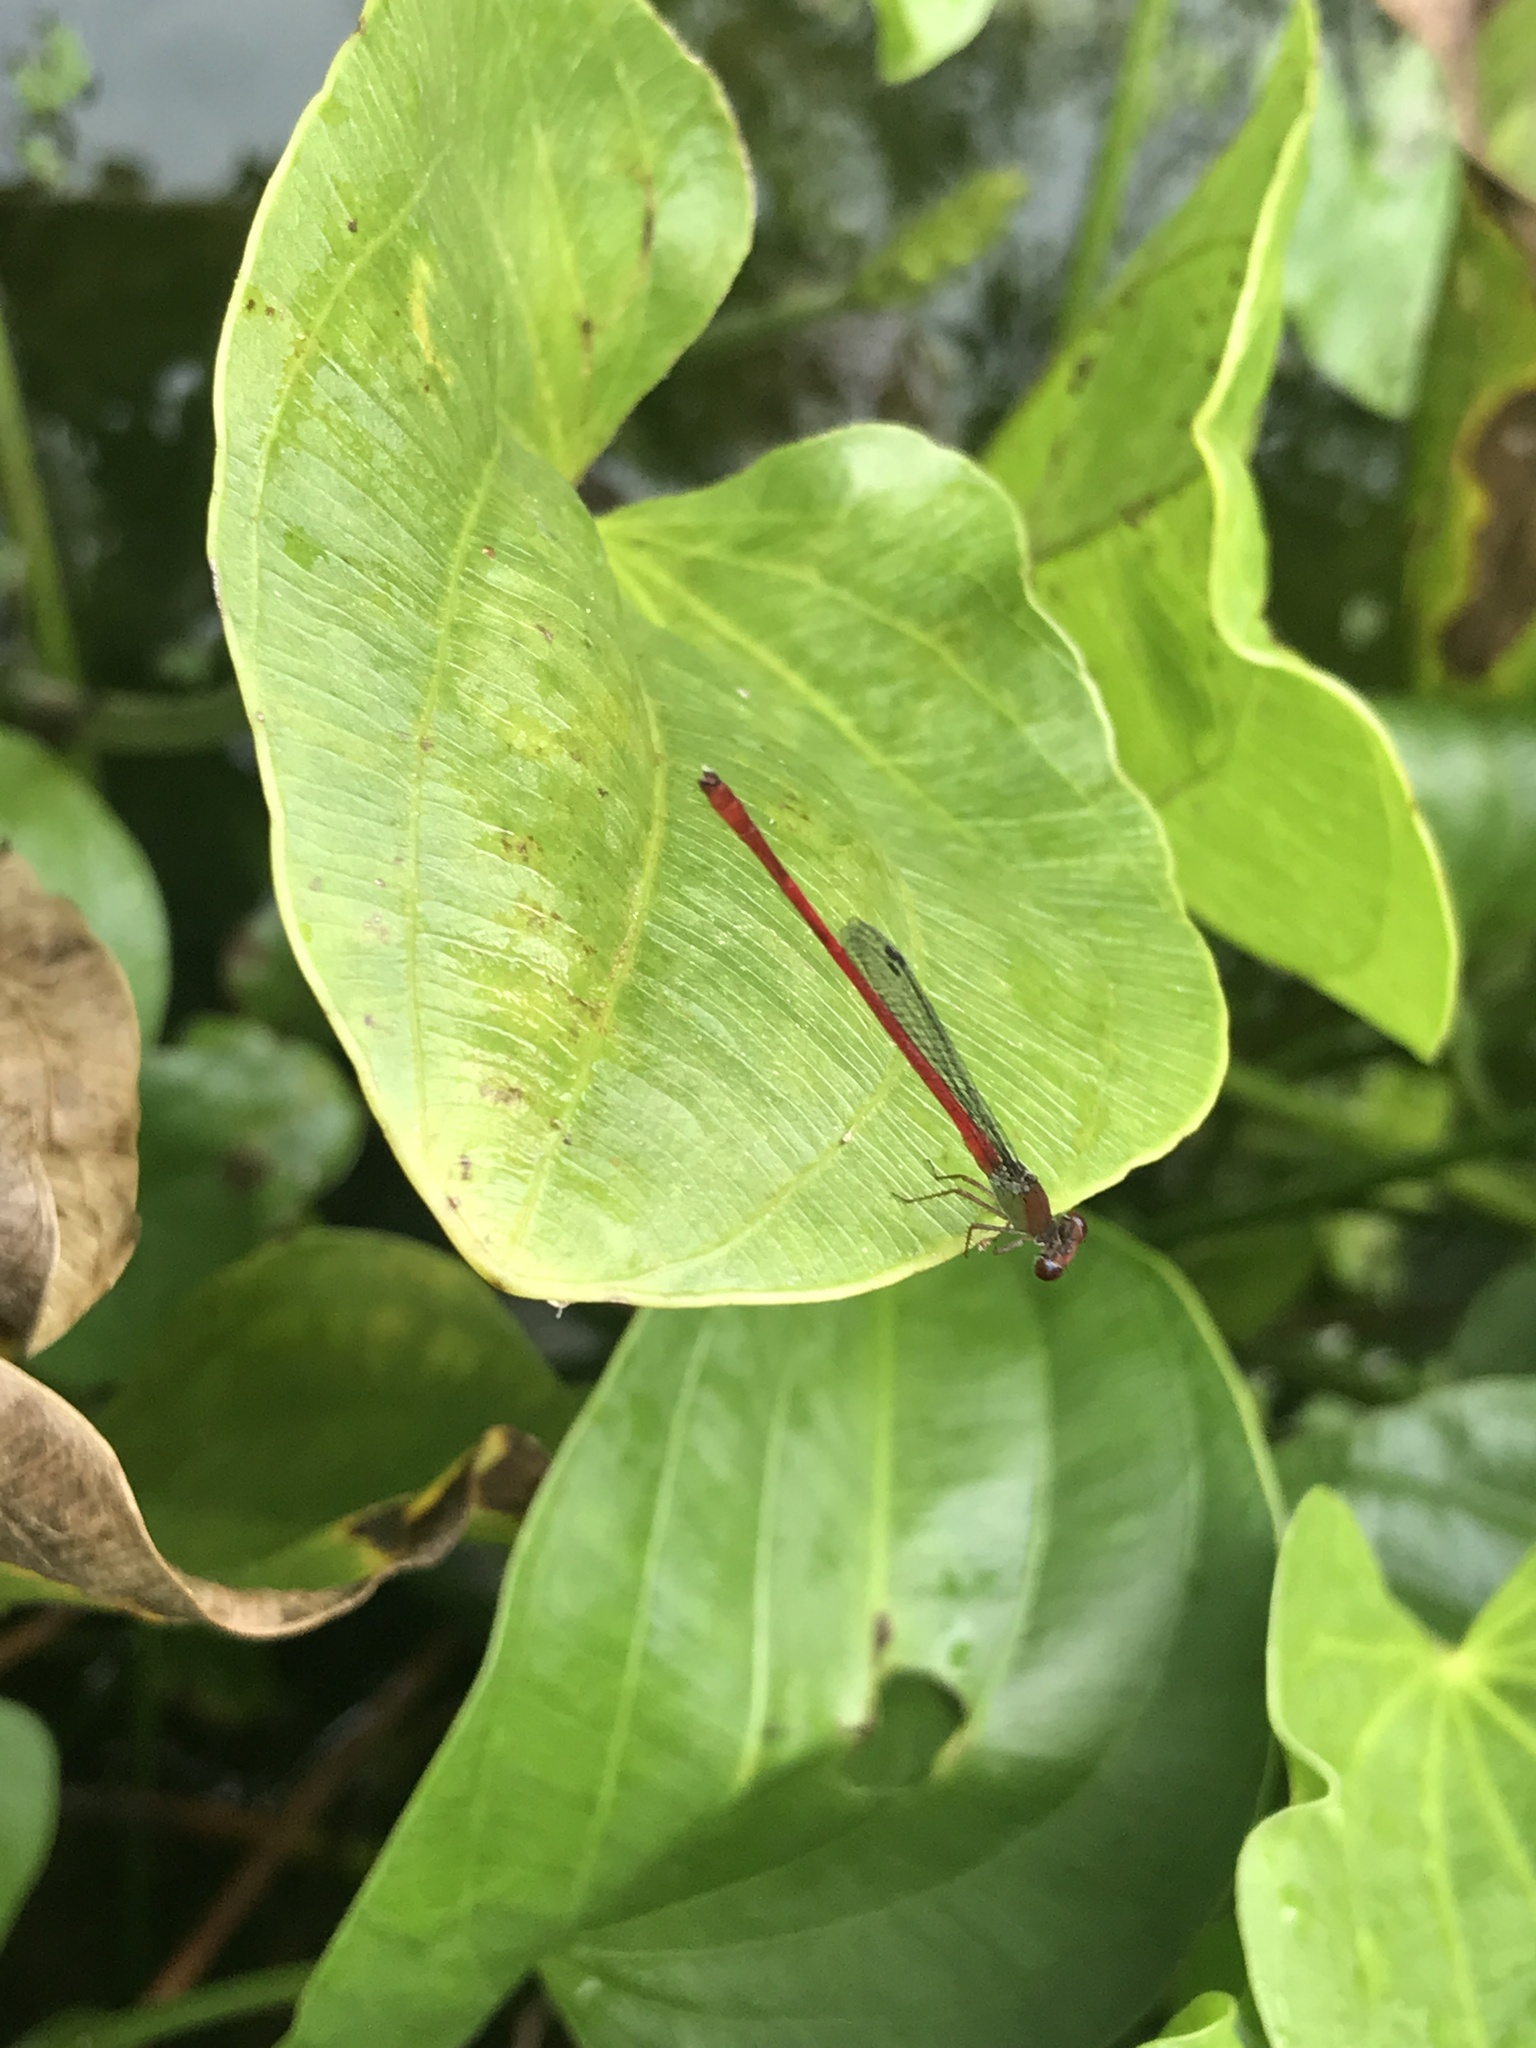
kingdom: Animalia
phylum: Arthropoda
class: Insecta
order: Odonata
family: Coenagrionidae
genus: Ceriagrion
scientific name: Ceriagrion chaoi
